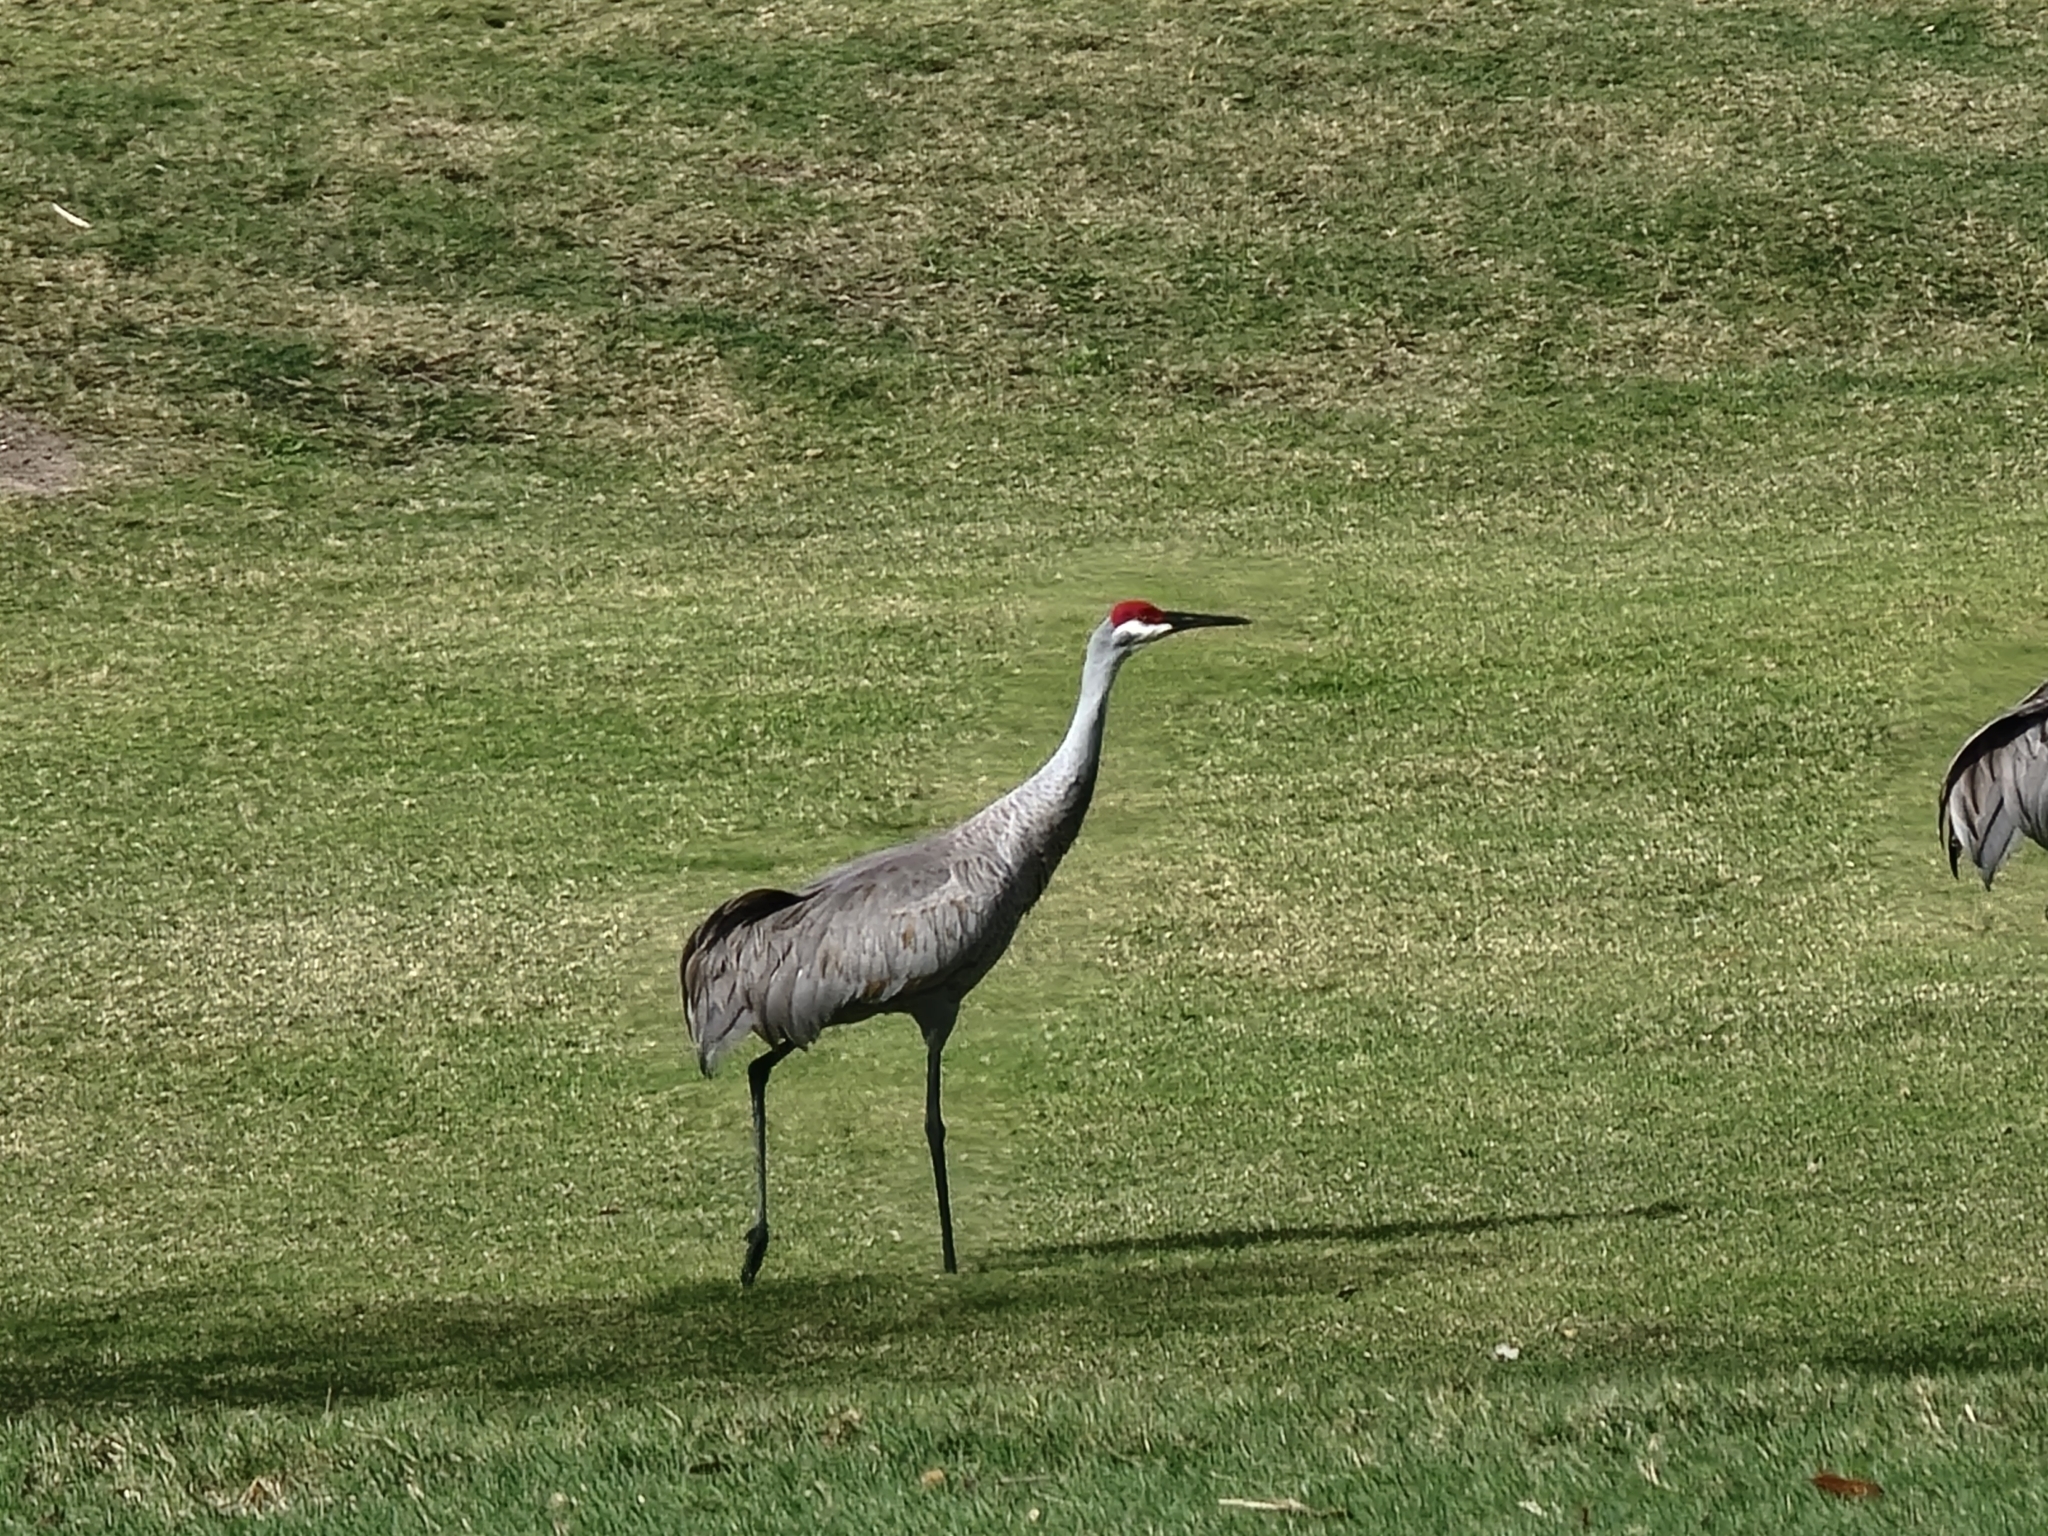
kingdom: Animalia
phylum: Chordata
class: Aves
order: Gruiformes
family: Gruidae
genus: Grus
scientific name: Grus canadensis
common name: Sandhill crane
